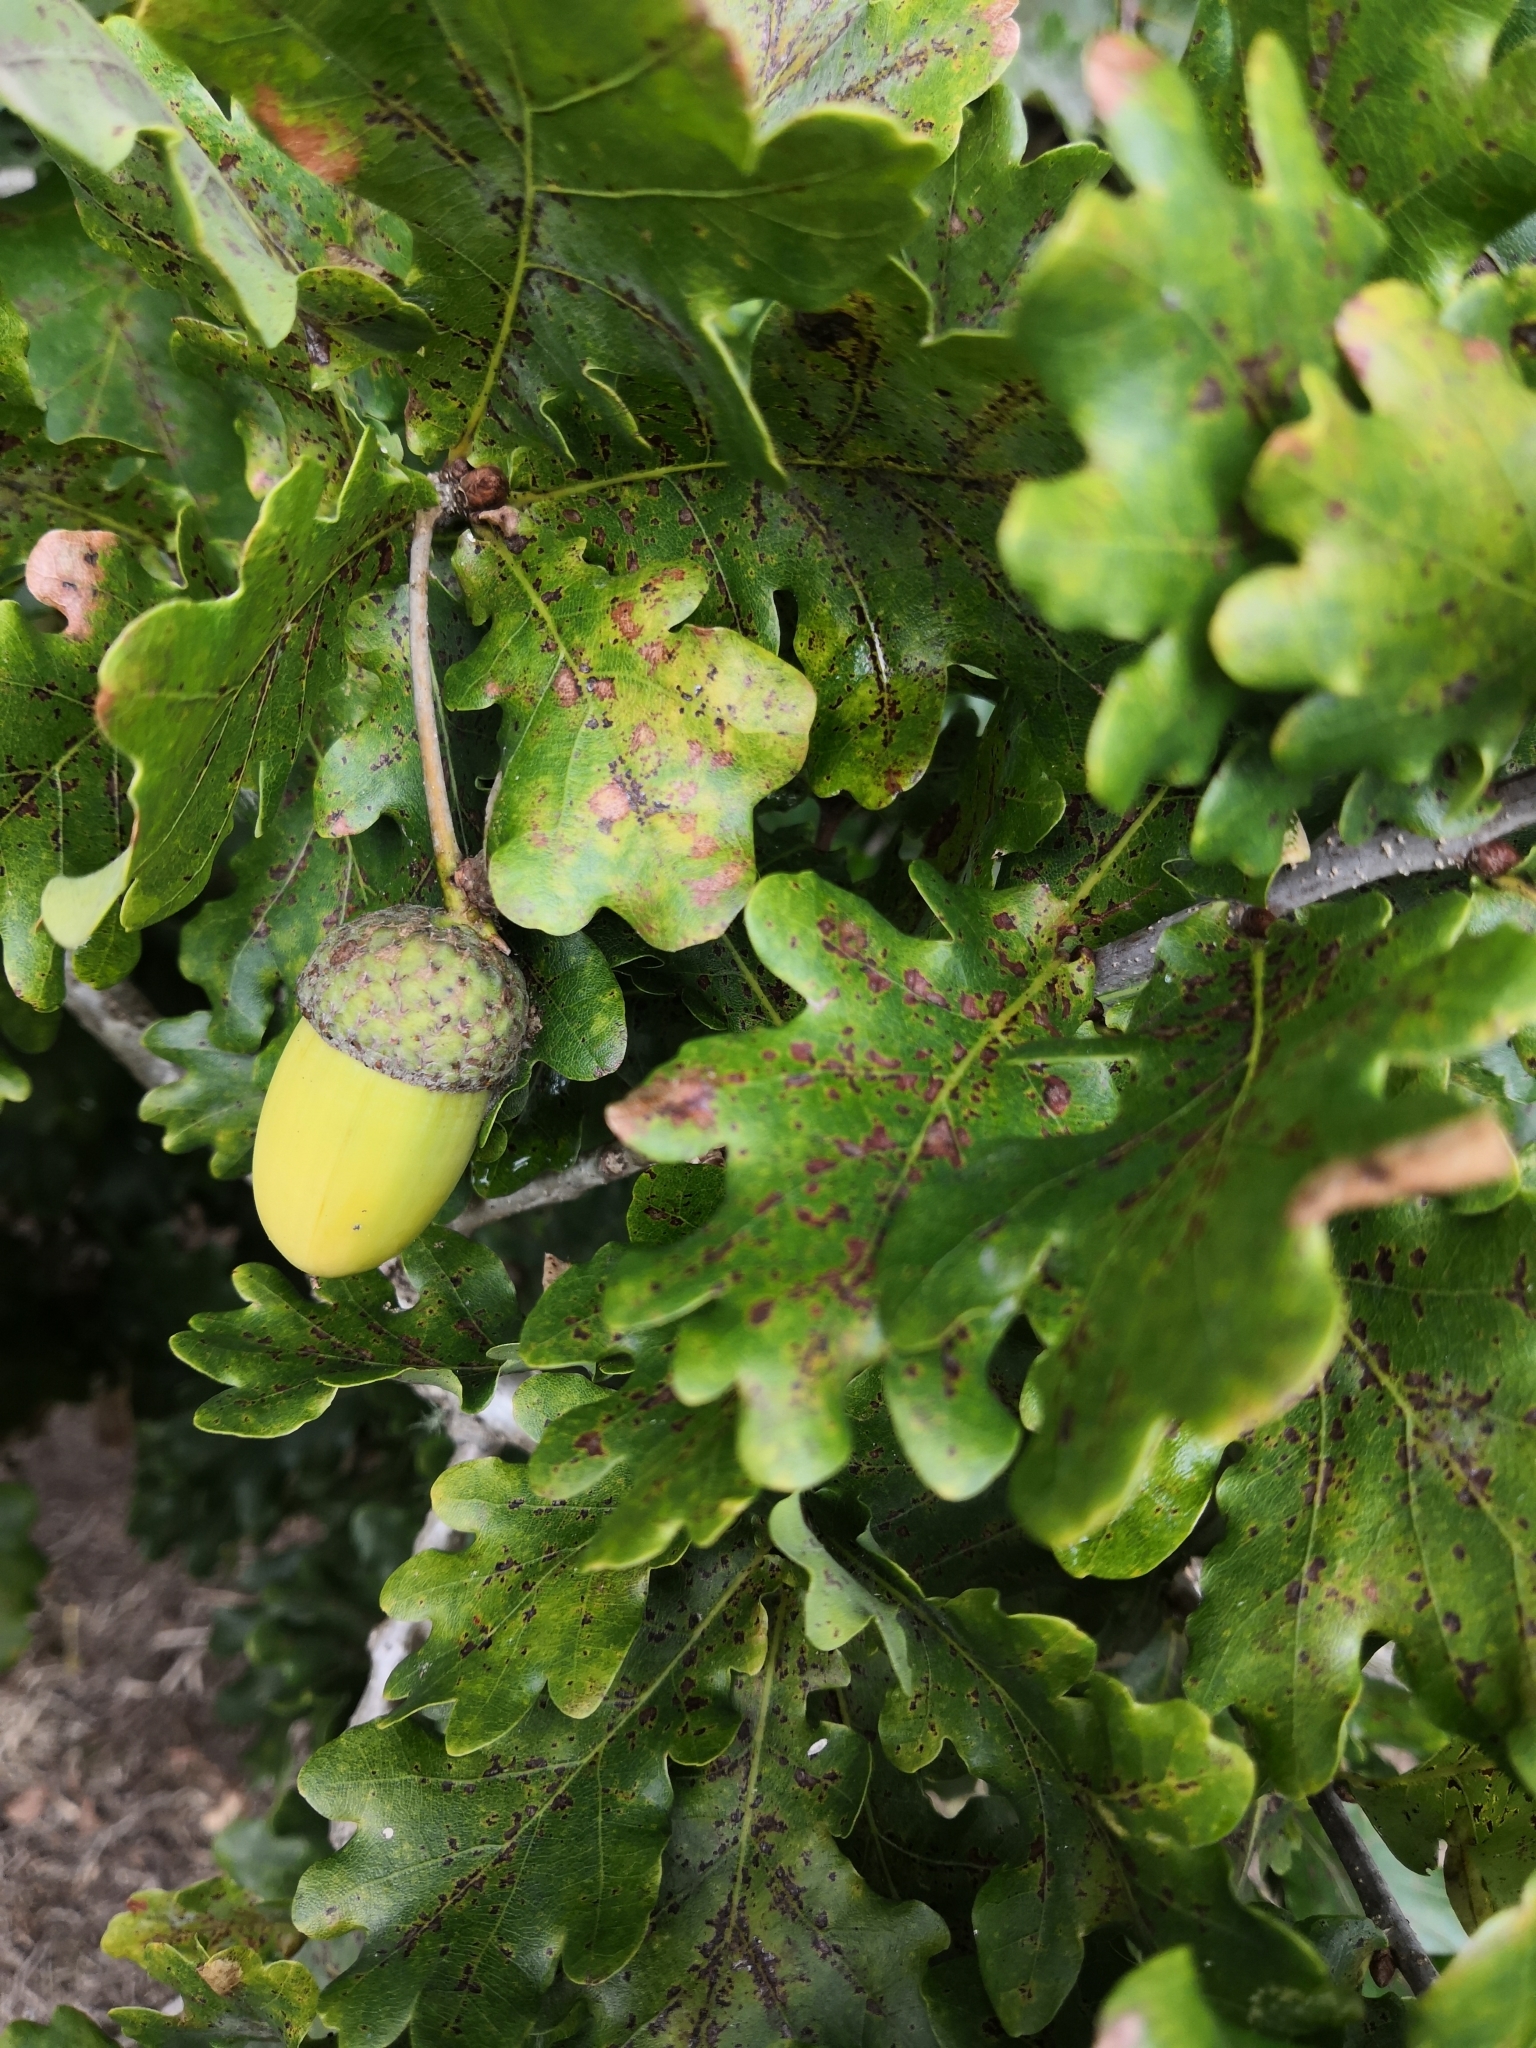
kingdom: Plantae
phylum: Tracheophyta
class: Magnoliopsida
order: Fagales
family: Fagaceae
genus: Quercus
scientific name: Quercus robur
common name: Pedunculate oak
